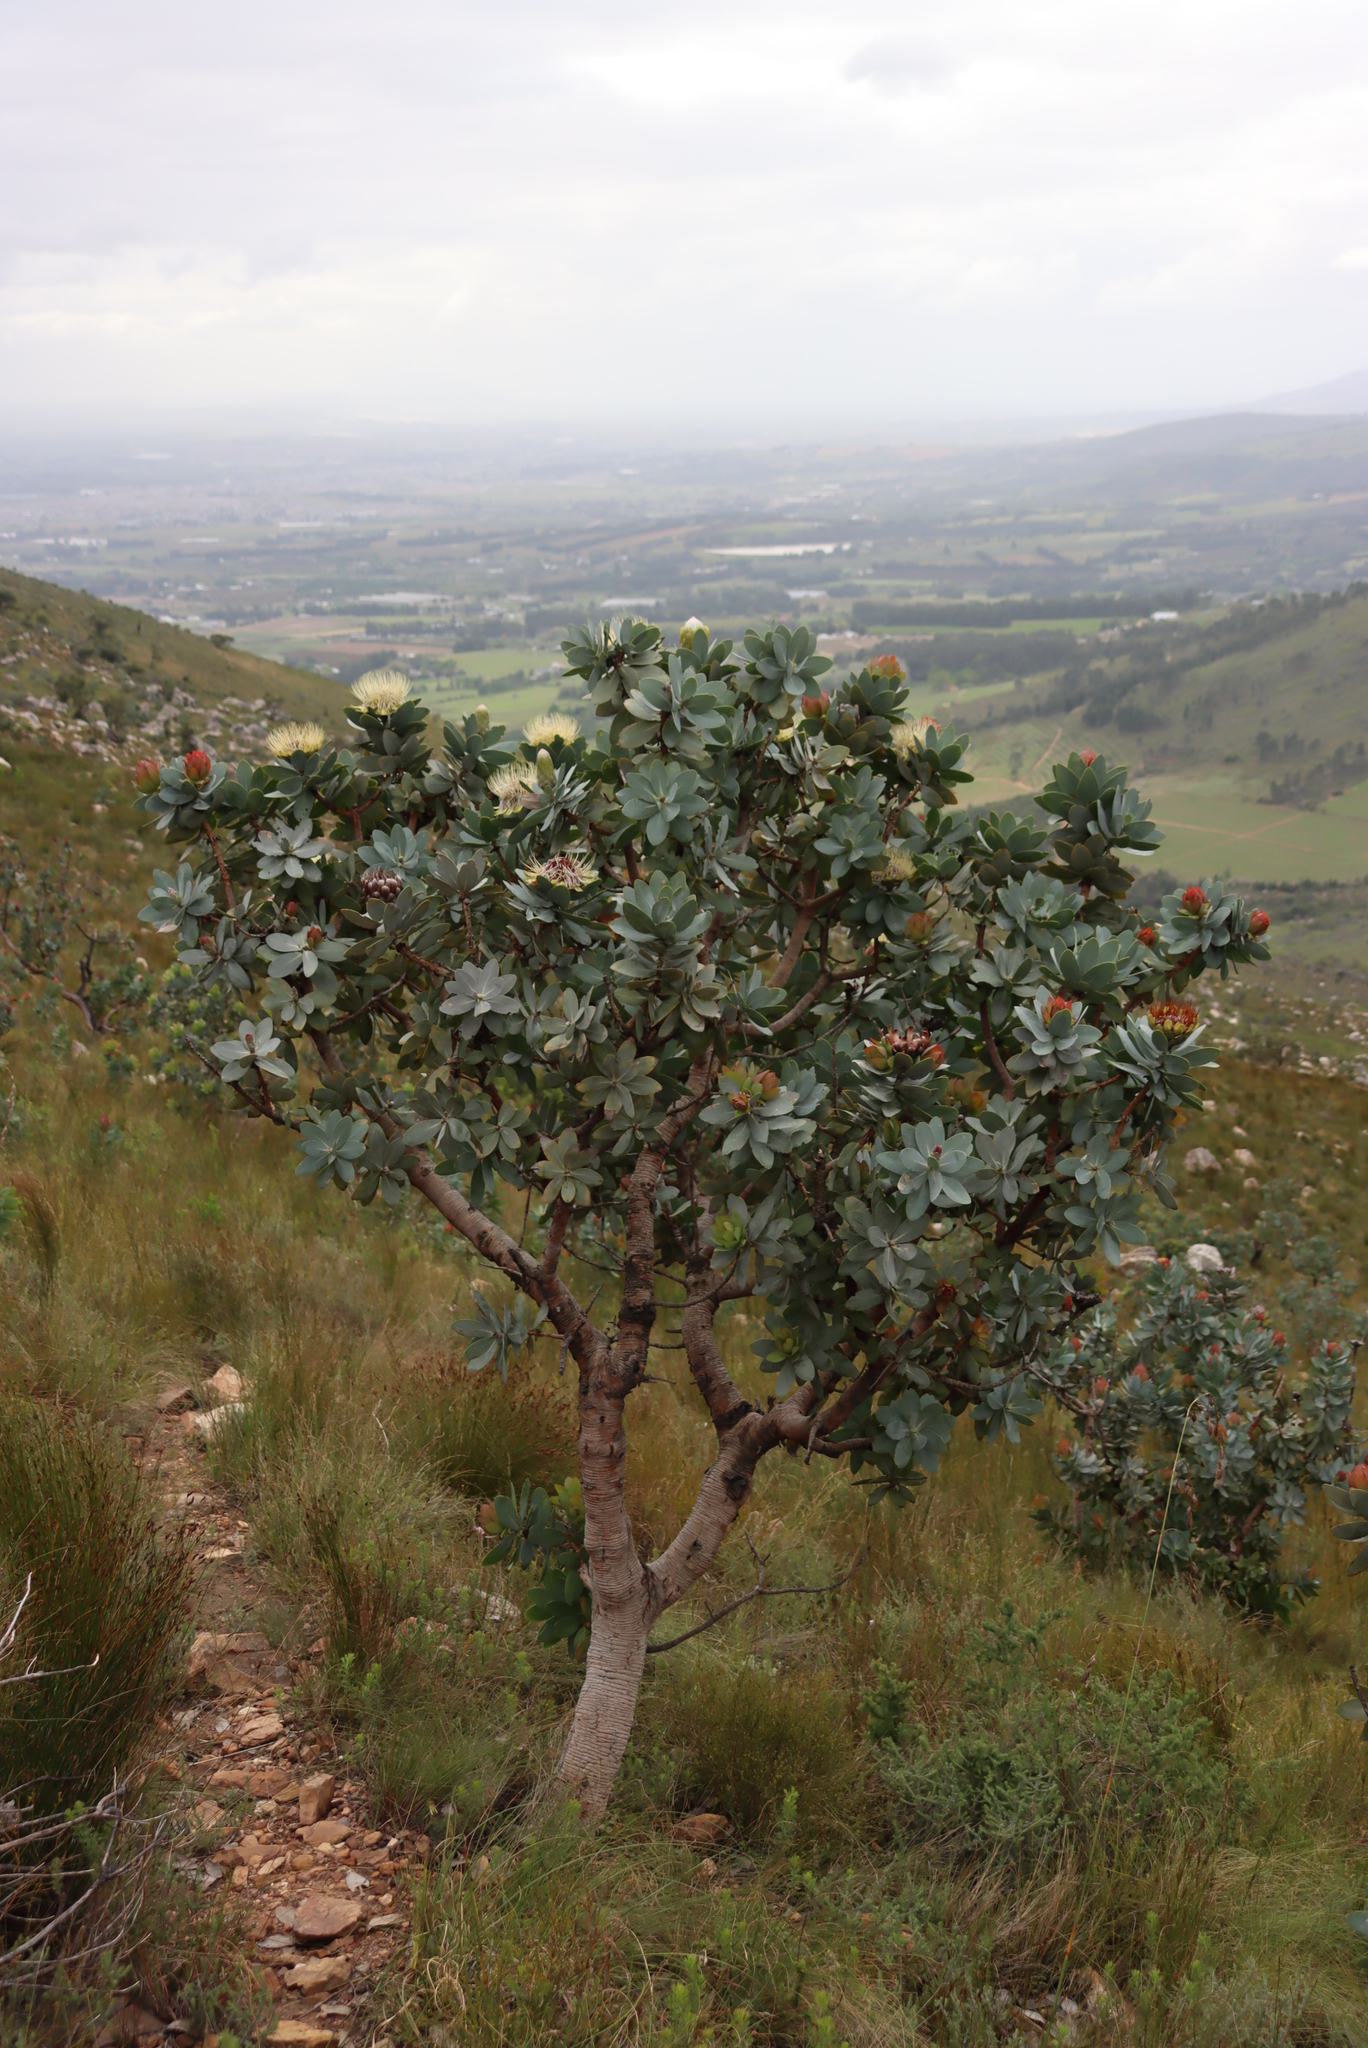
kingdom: Plantae
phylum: Tracheophyta
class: Magnoliopsida
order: Proteales
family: Proteaceae
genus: Protea
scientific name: Protea nitida
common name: Tree protea
